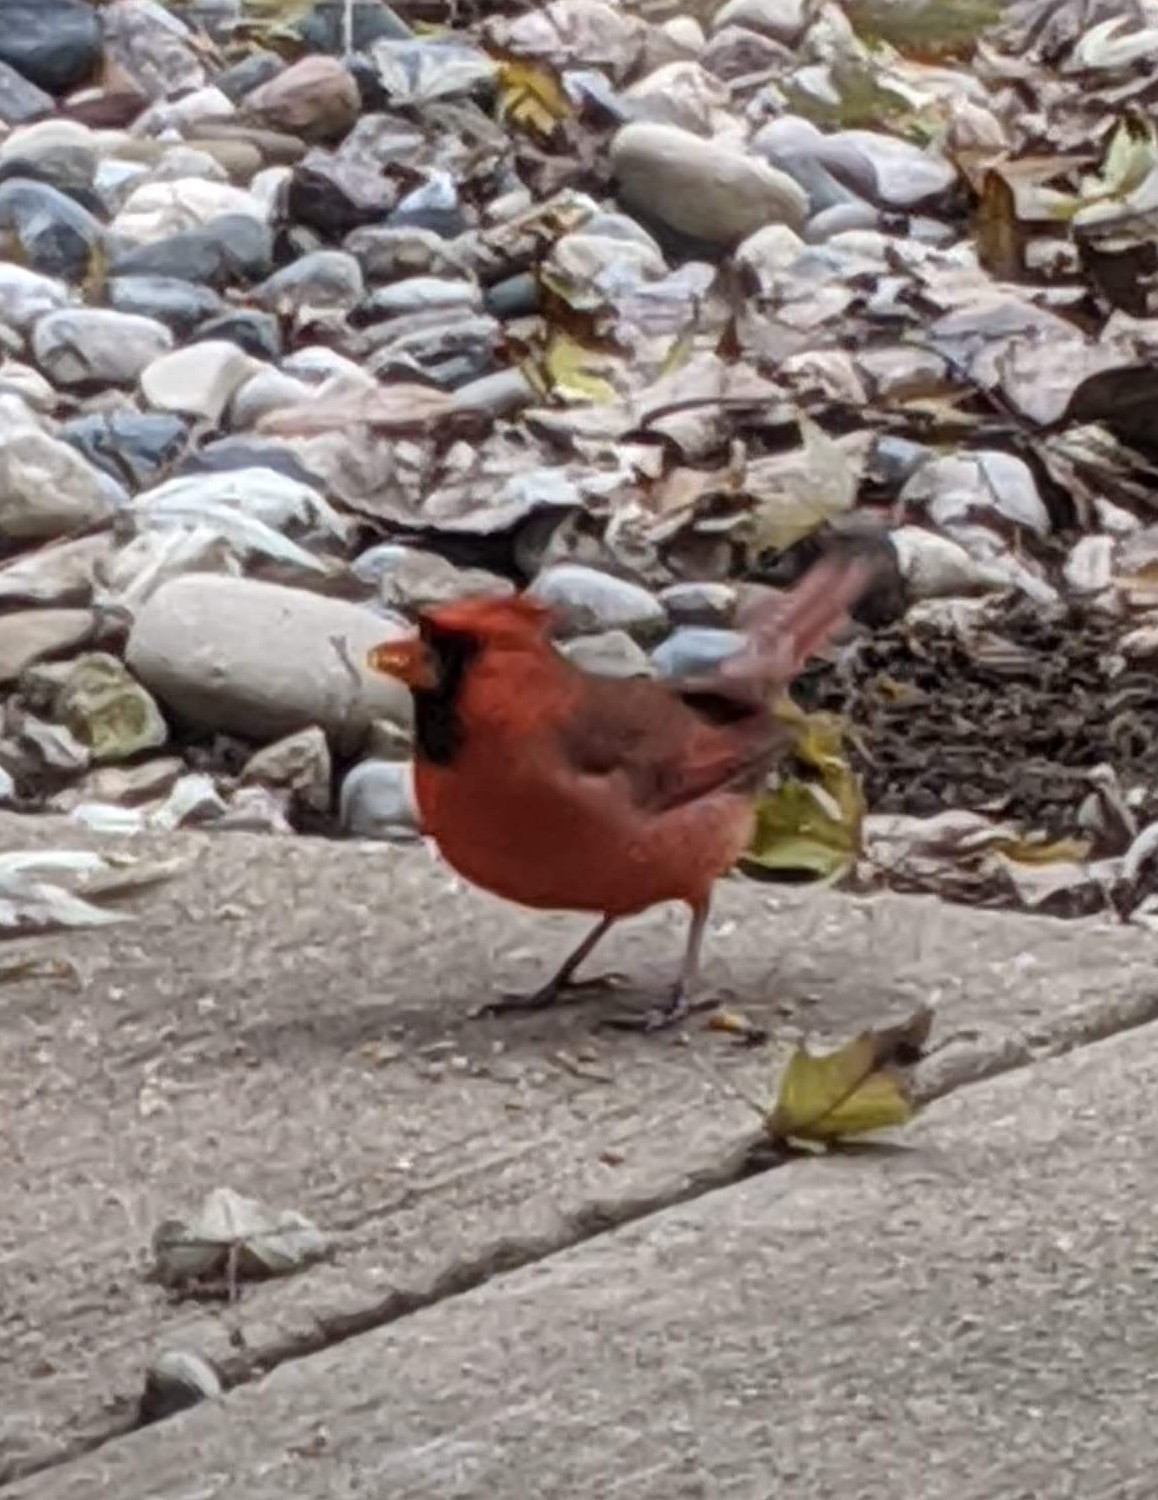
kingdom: Animalia
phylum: Chordata
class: Aves
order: Passeriformes
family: Cardinalidae
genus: Cardinalis
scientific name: Cardinalis cardinalis
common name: Northern cardinal
